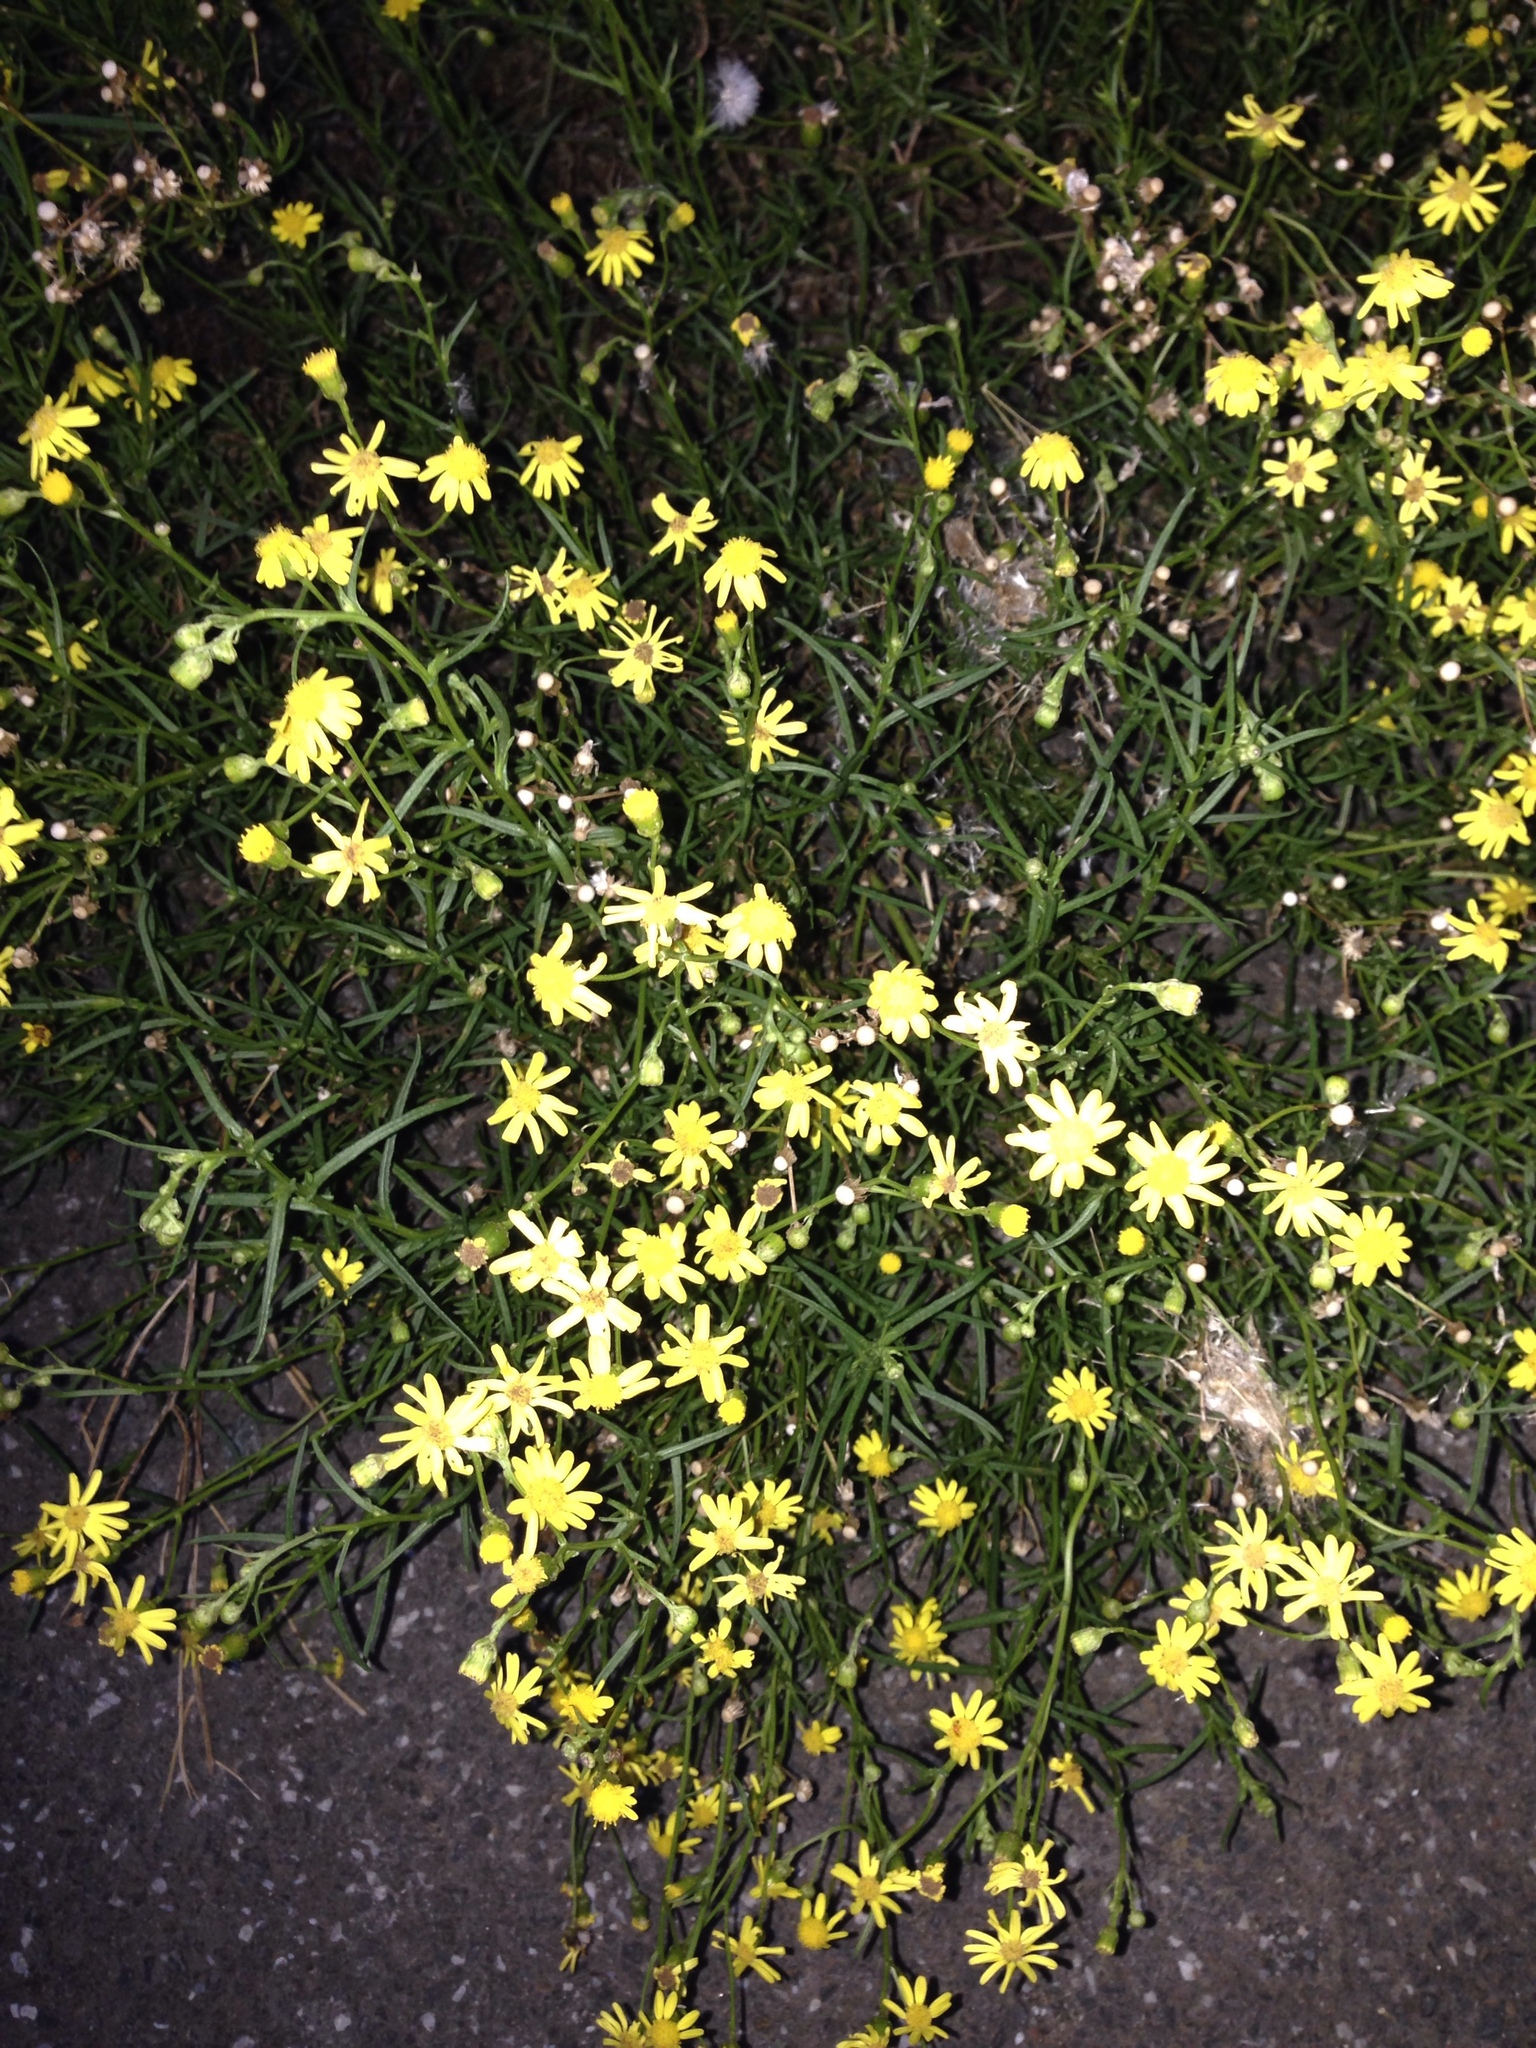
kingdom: Plantae
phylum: Tracheophyta
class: Magnoliopsida
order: Asterales
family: Asteraceae
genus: Senecio
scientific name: Senecio inaequidens
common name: Narrow-leaved ragwort
